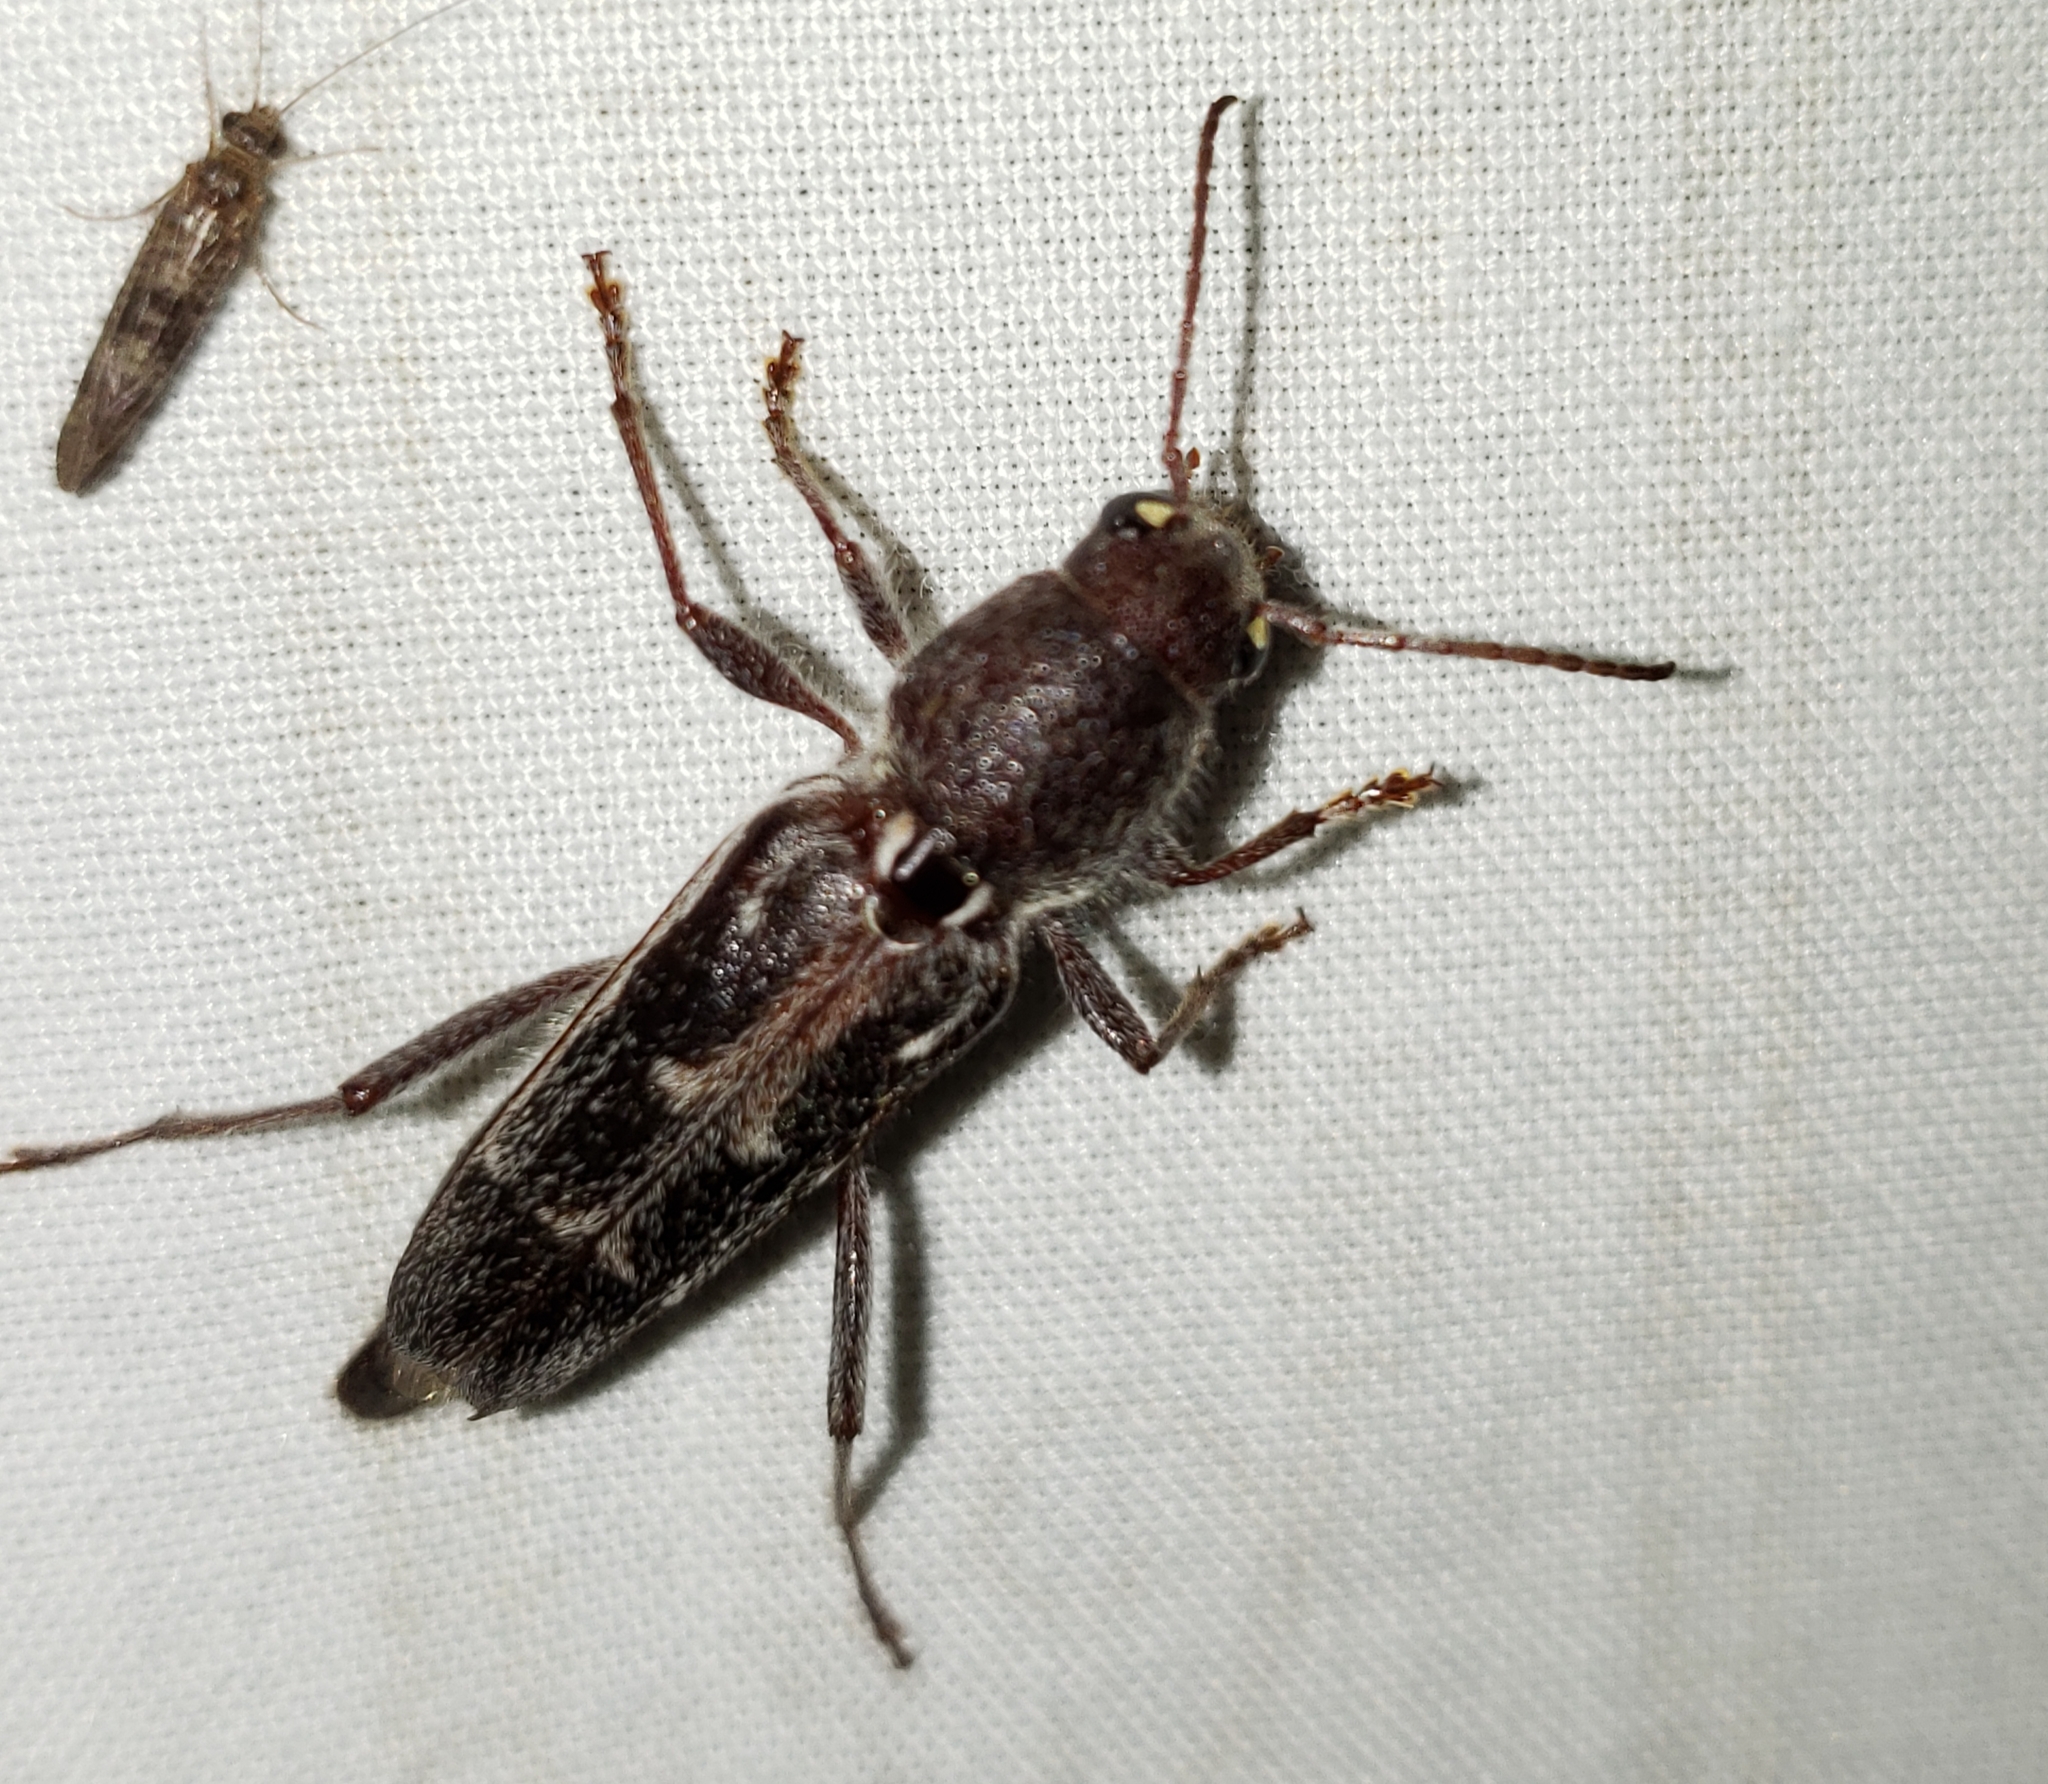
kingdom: Animalia
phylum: Arthropoda
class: Insecta
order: Coleoptera
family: Cerambycidae
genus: Xylotrechus
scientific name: Xylotrechus sagittatus
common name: Arrowhead borer
